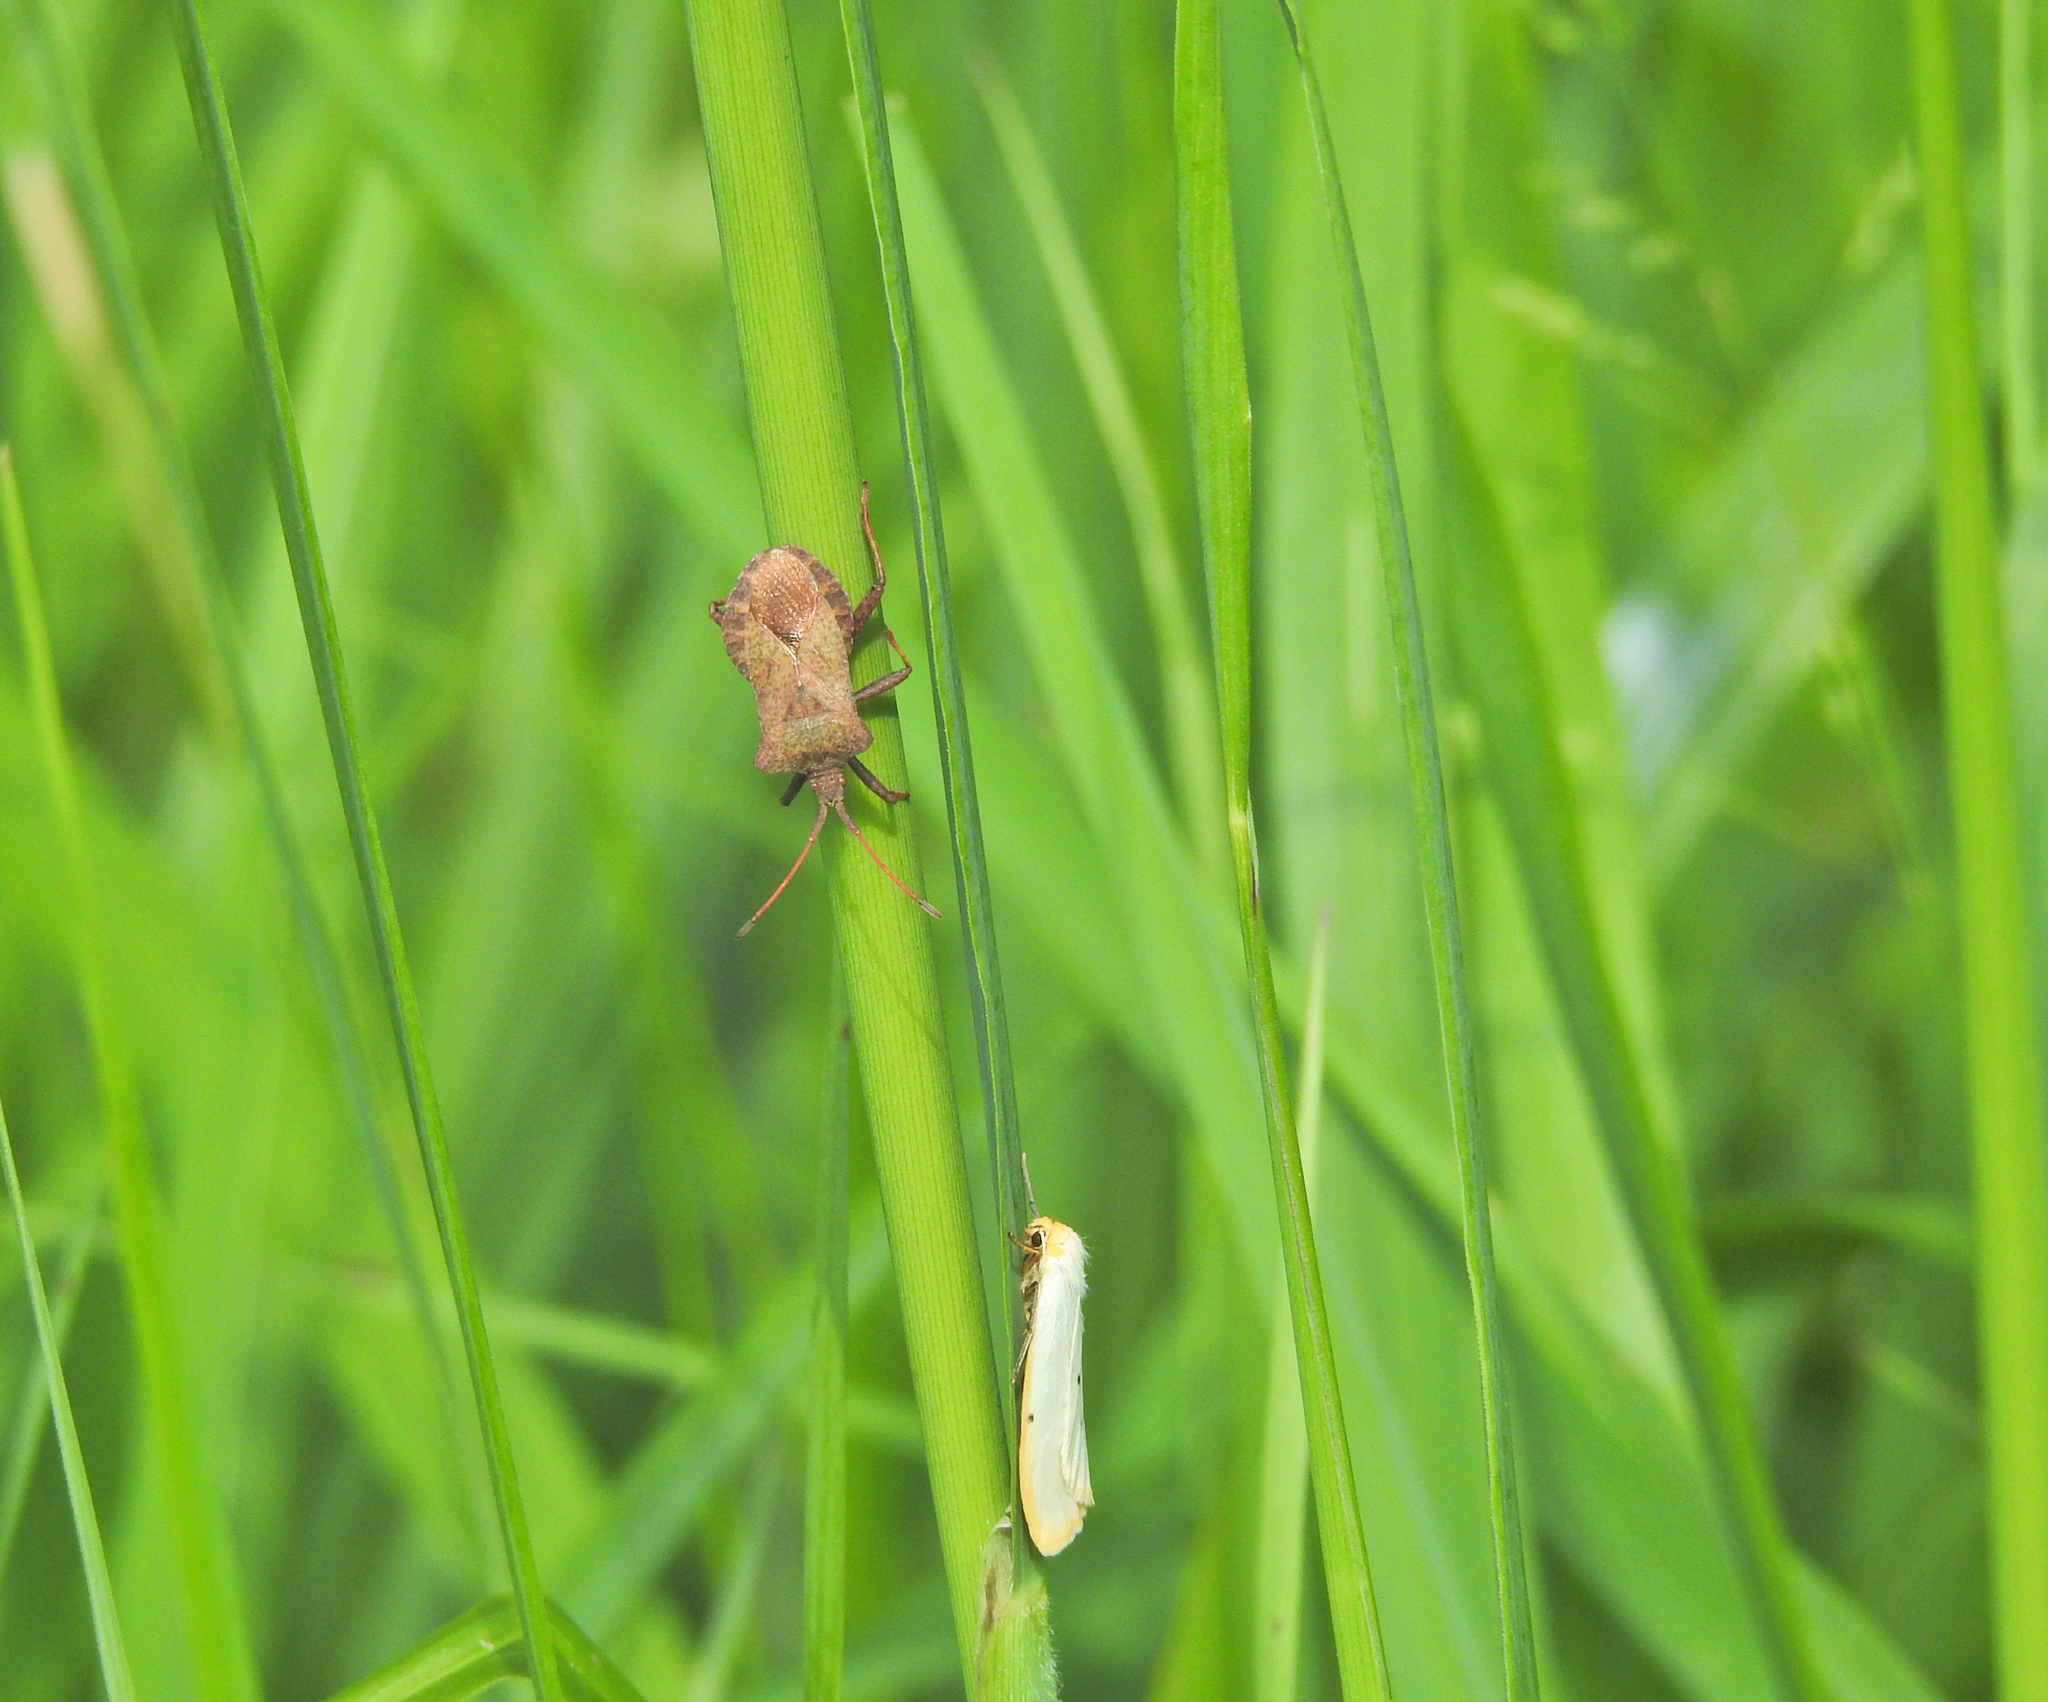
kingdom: Animalia
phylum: Arthropoda
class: Insecta
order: Hemiptera
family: Coreidae
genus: Coreus
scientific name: Coreus marginatus
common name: Dock bug
